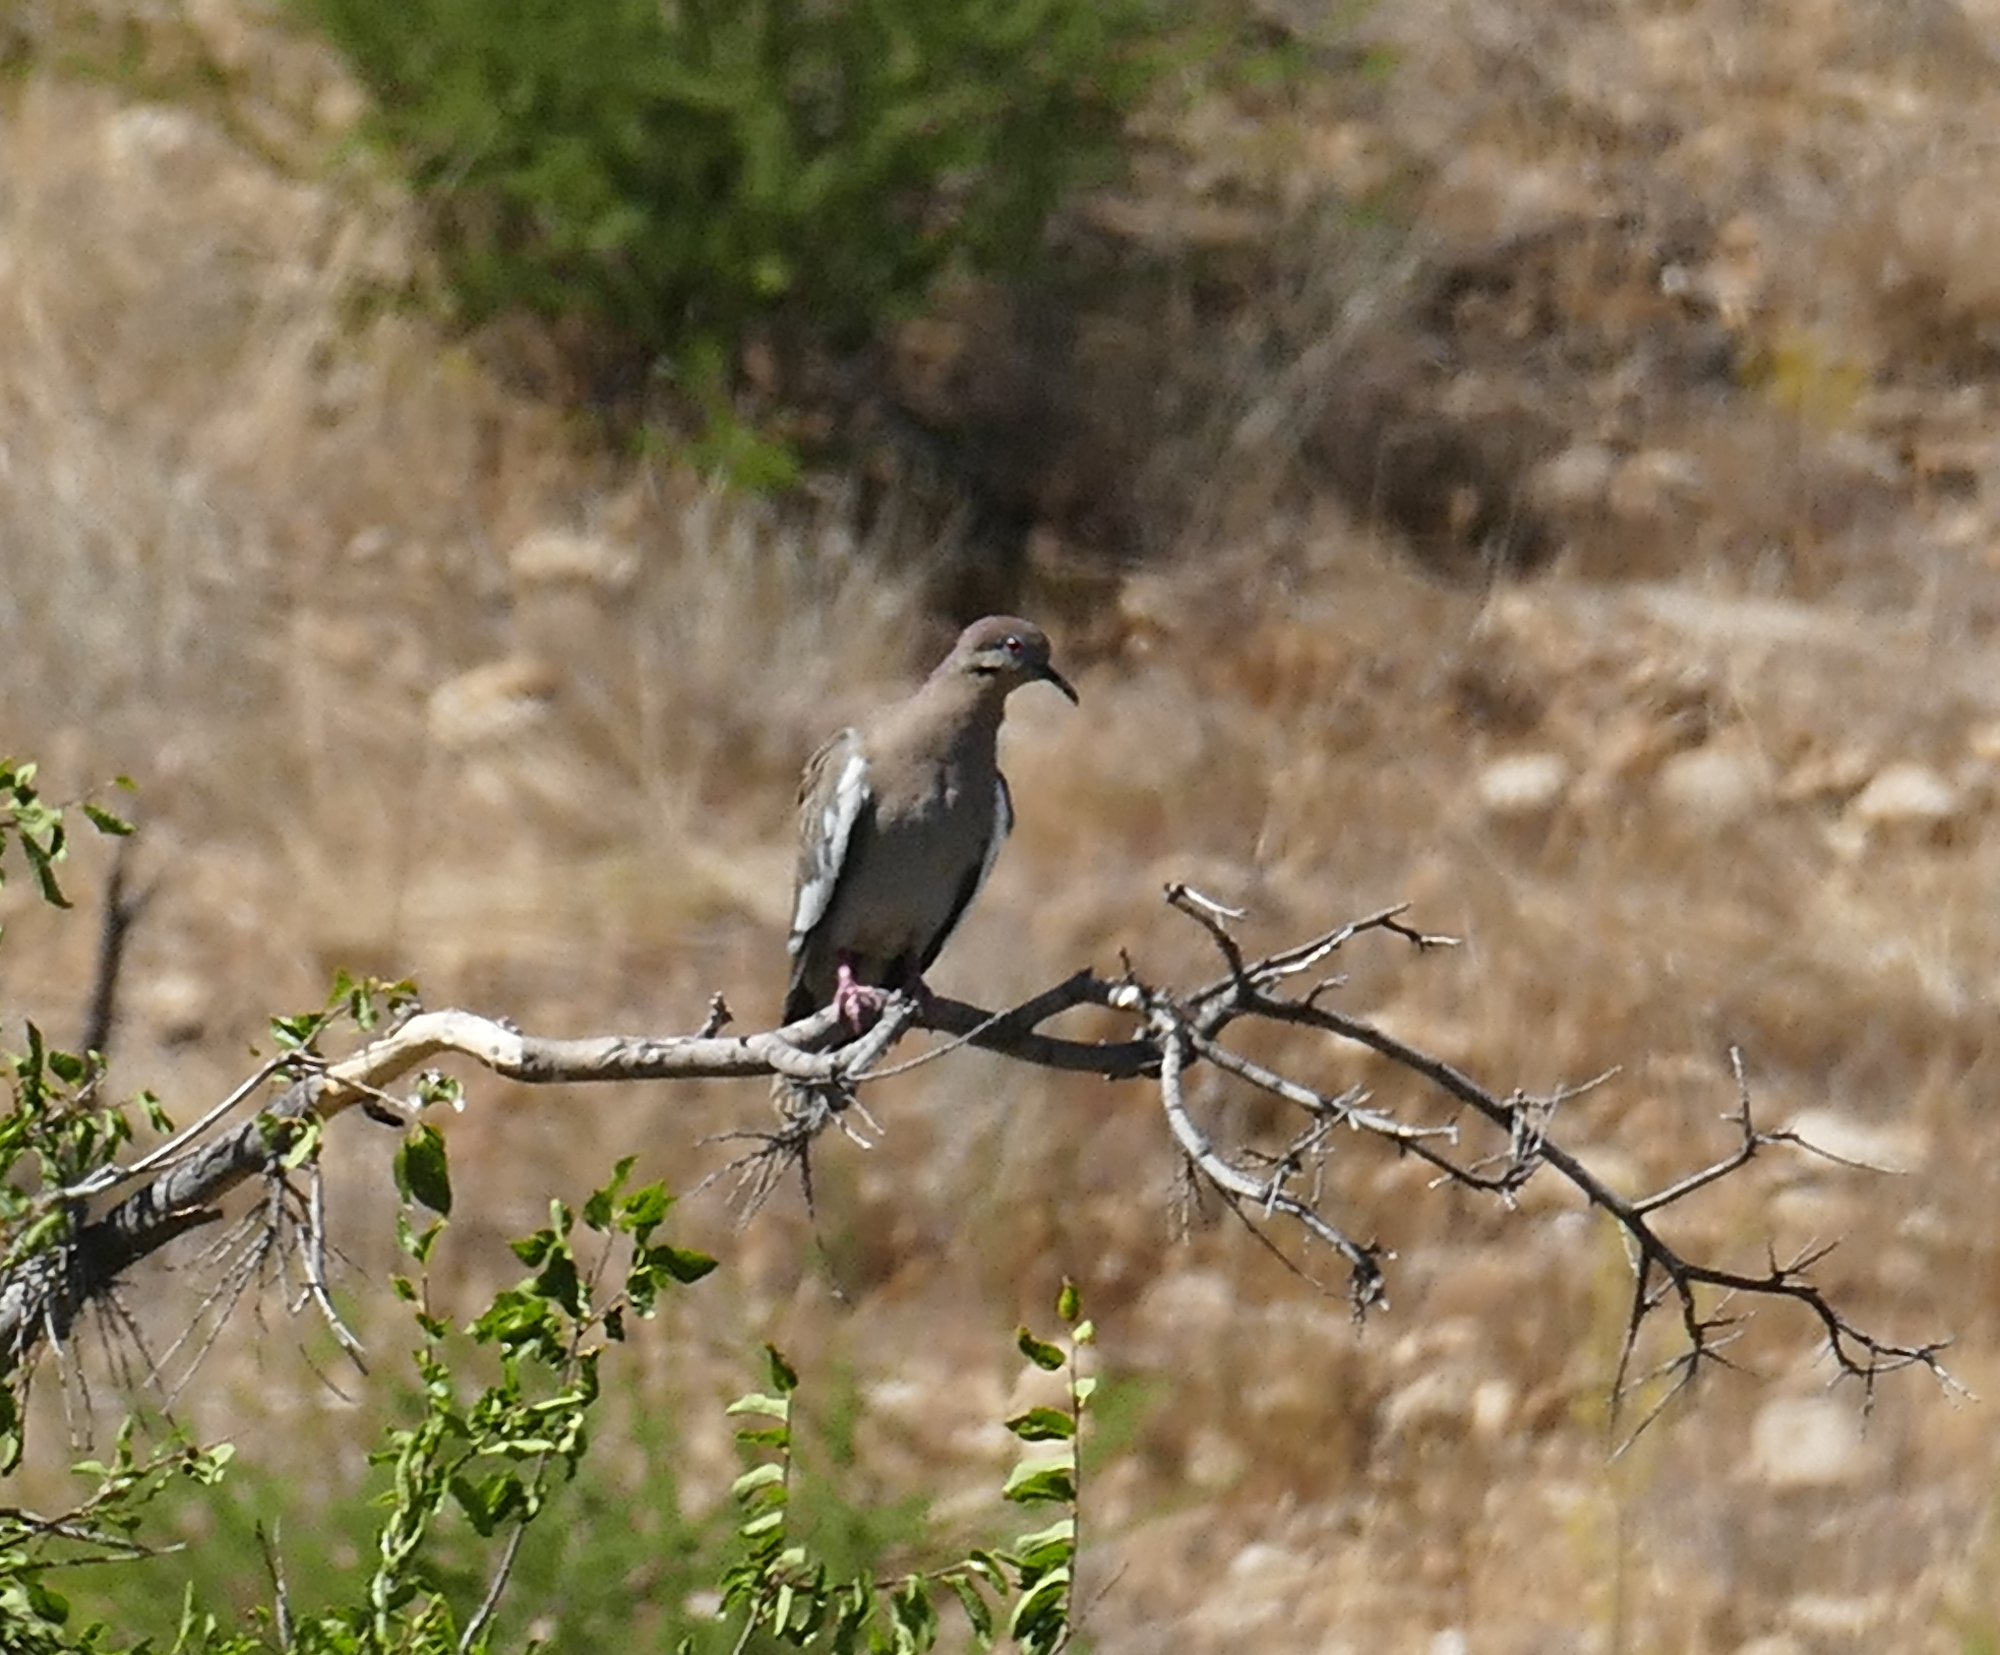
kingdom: Animalia
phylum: Chordata
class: Aves
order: Columbiformes
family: Columbidae
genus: Zenaida
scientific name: Zenaida asiatica
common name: White-winged dove
